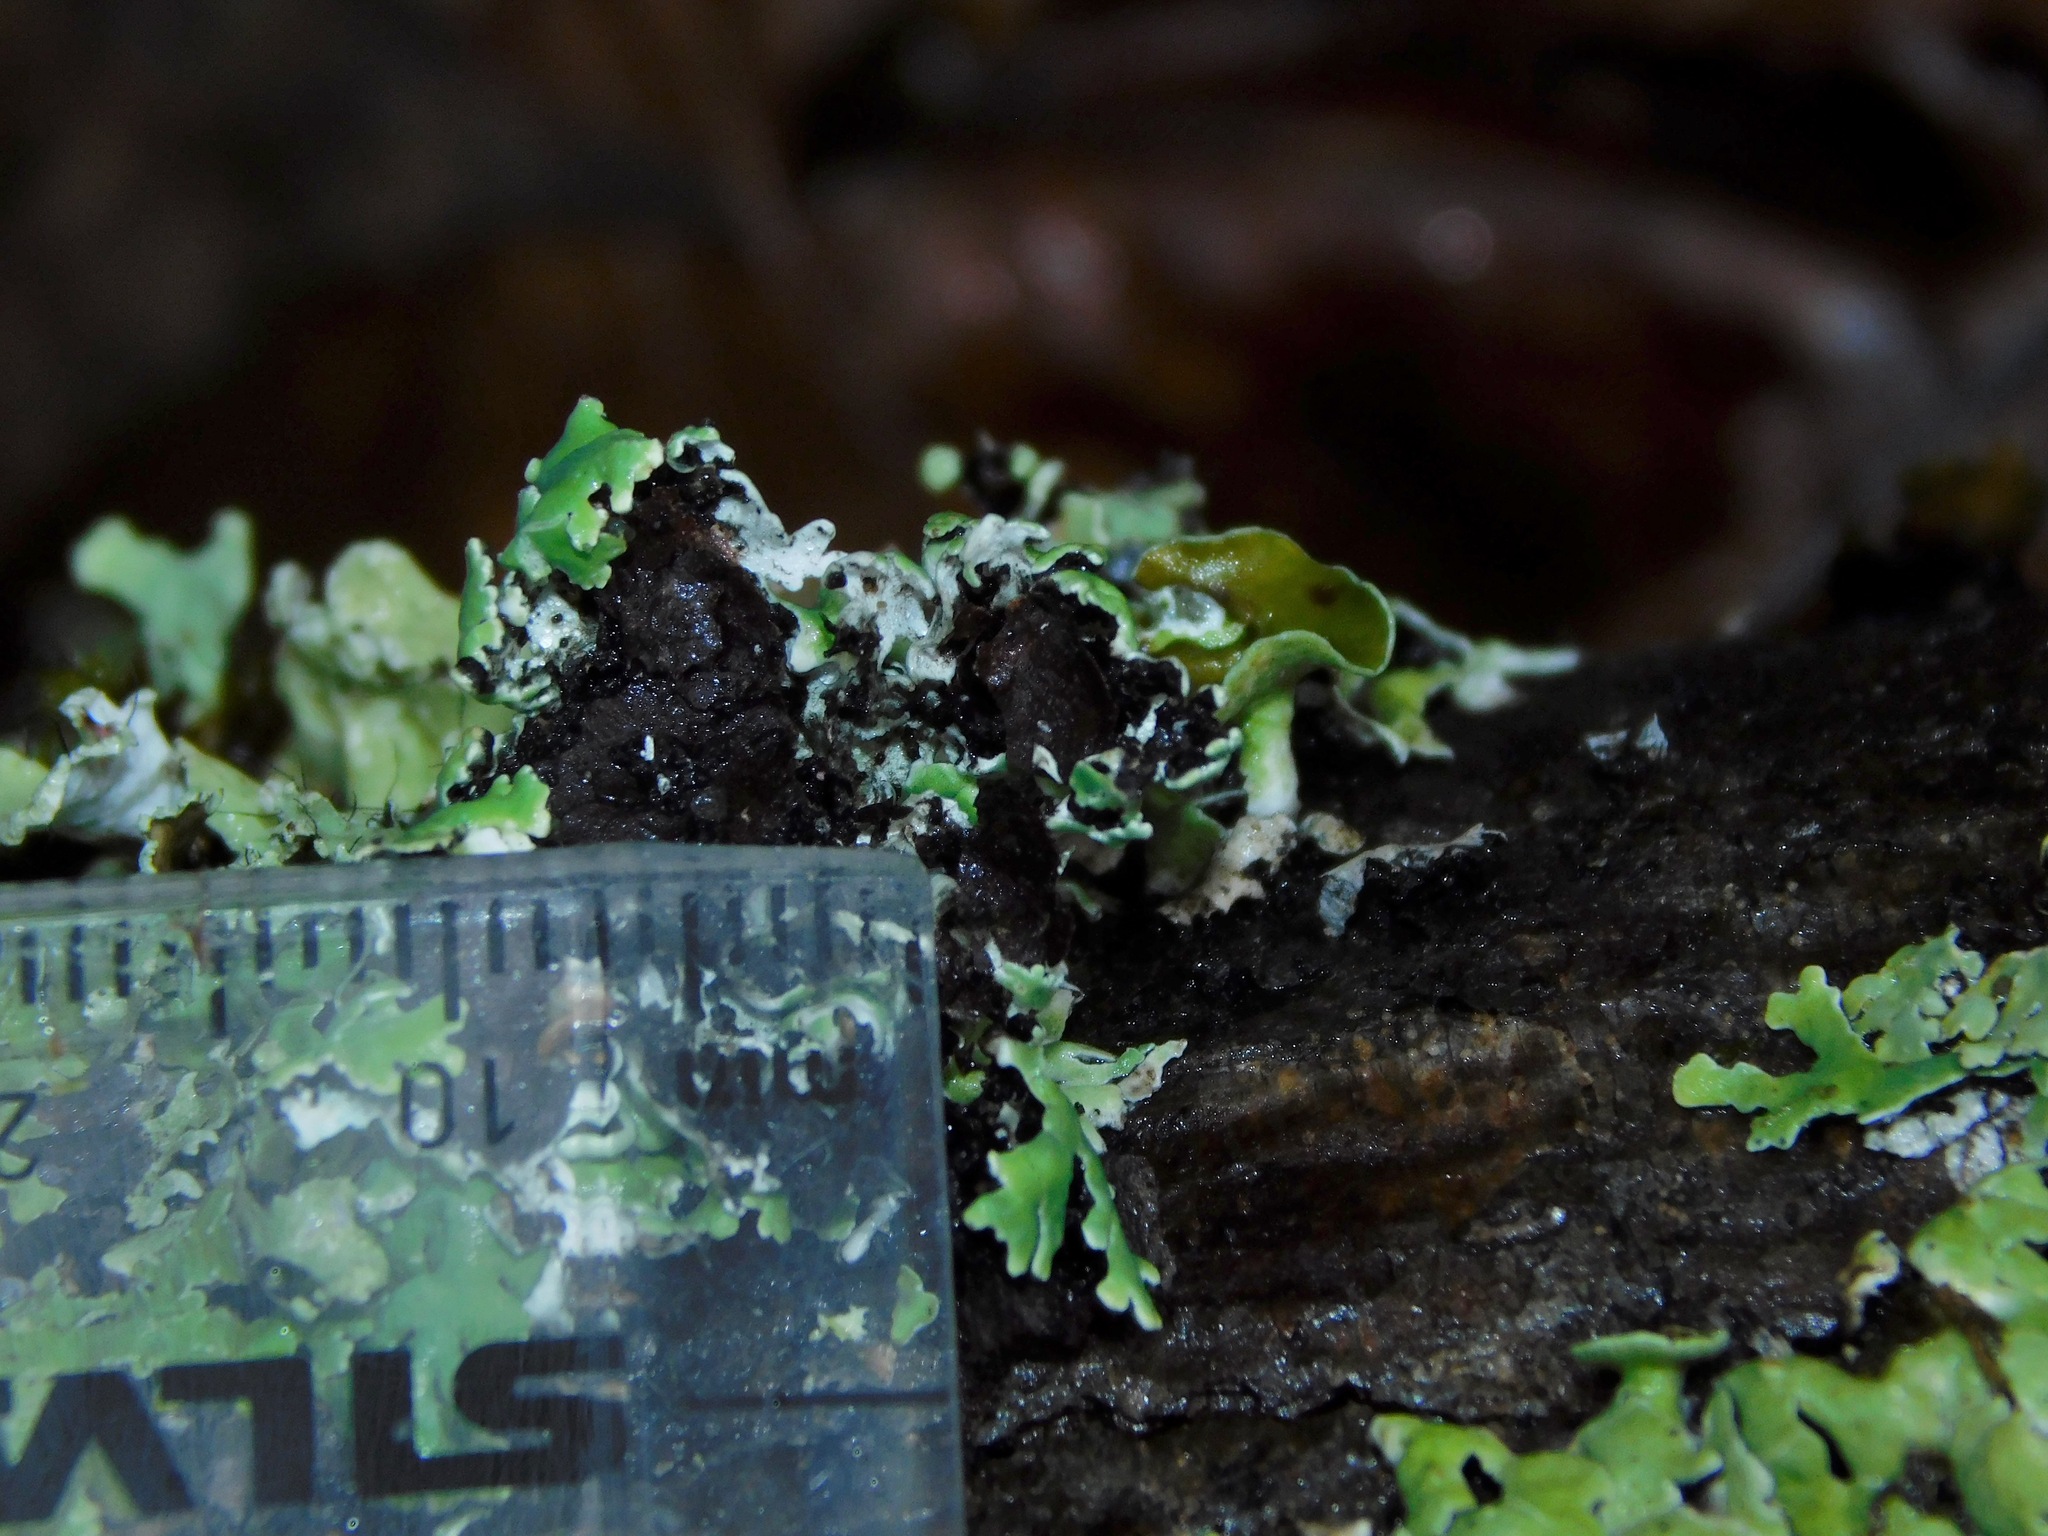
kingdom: Fungi
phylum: Ascomycota
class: Lecanoromycetes
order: Lecanorales
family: Parmeliaceae
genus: Anzia
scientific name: Anzia colpodes
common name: Black-foam lichen
